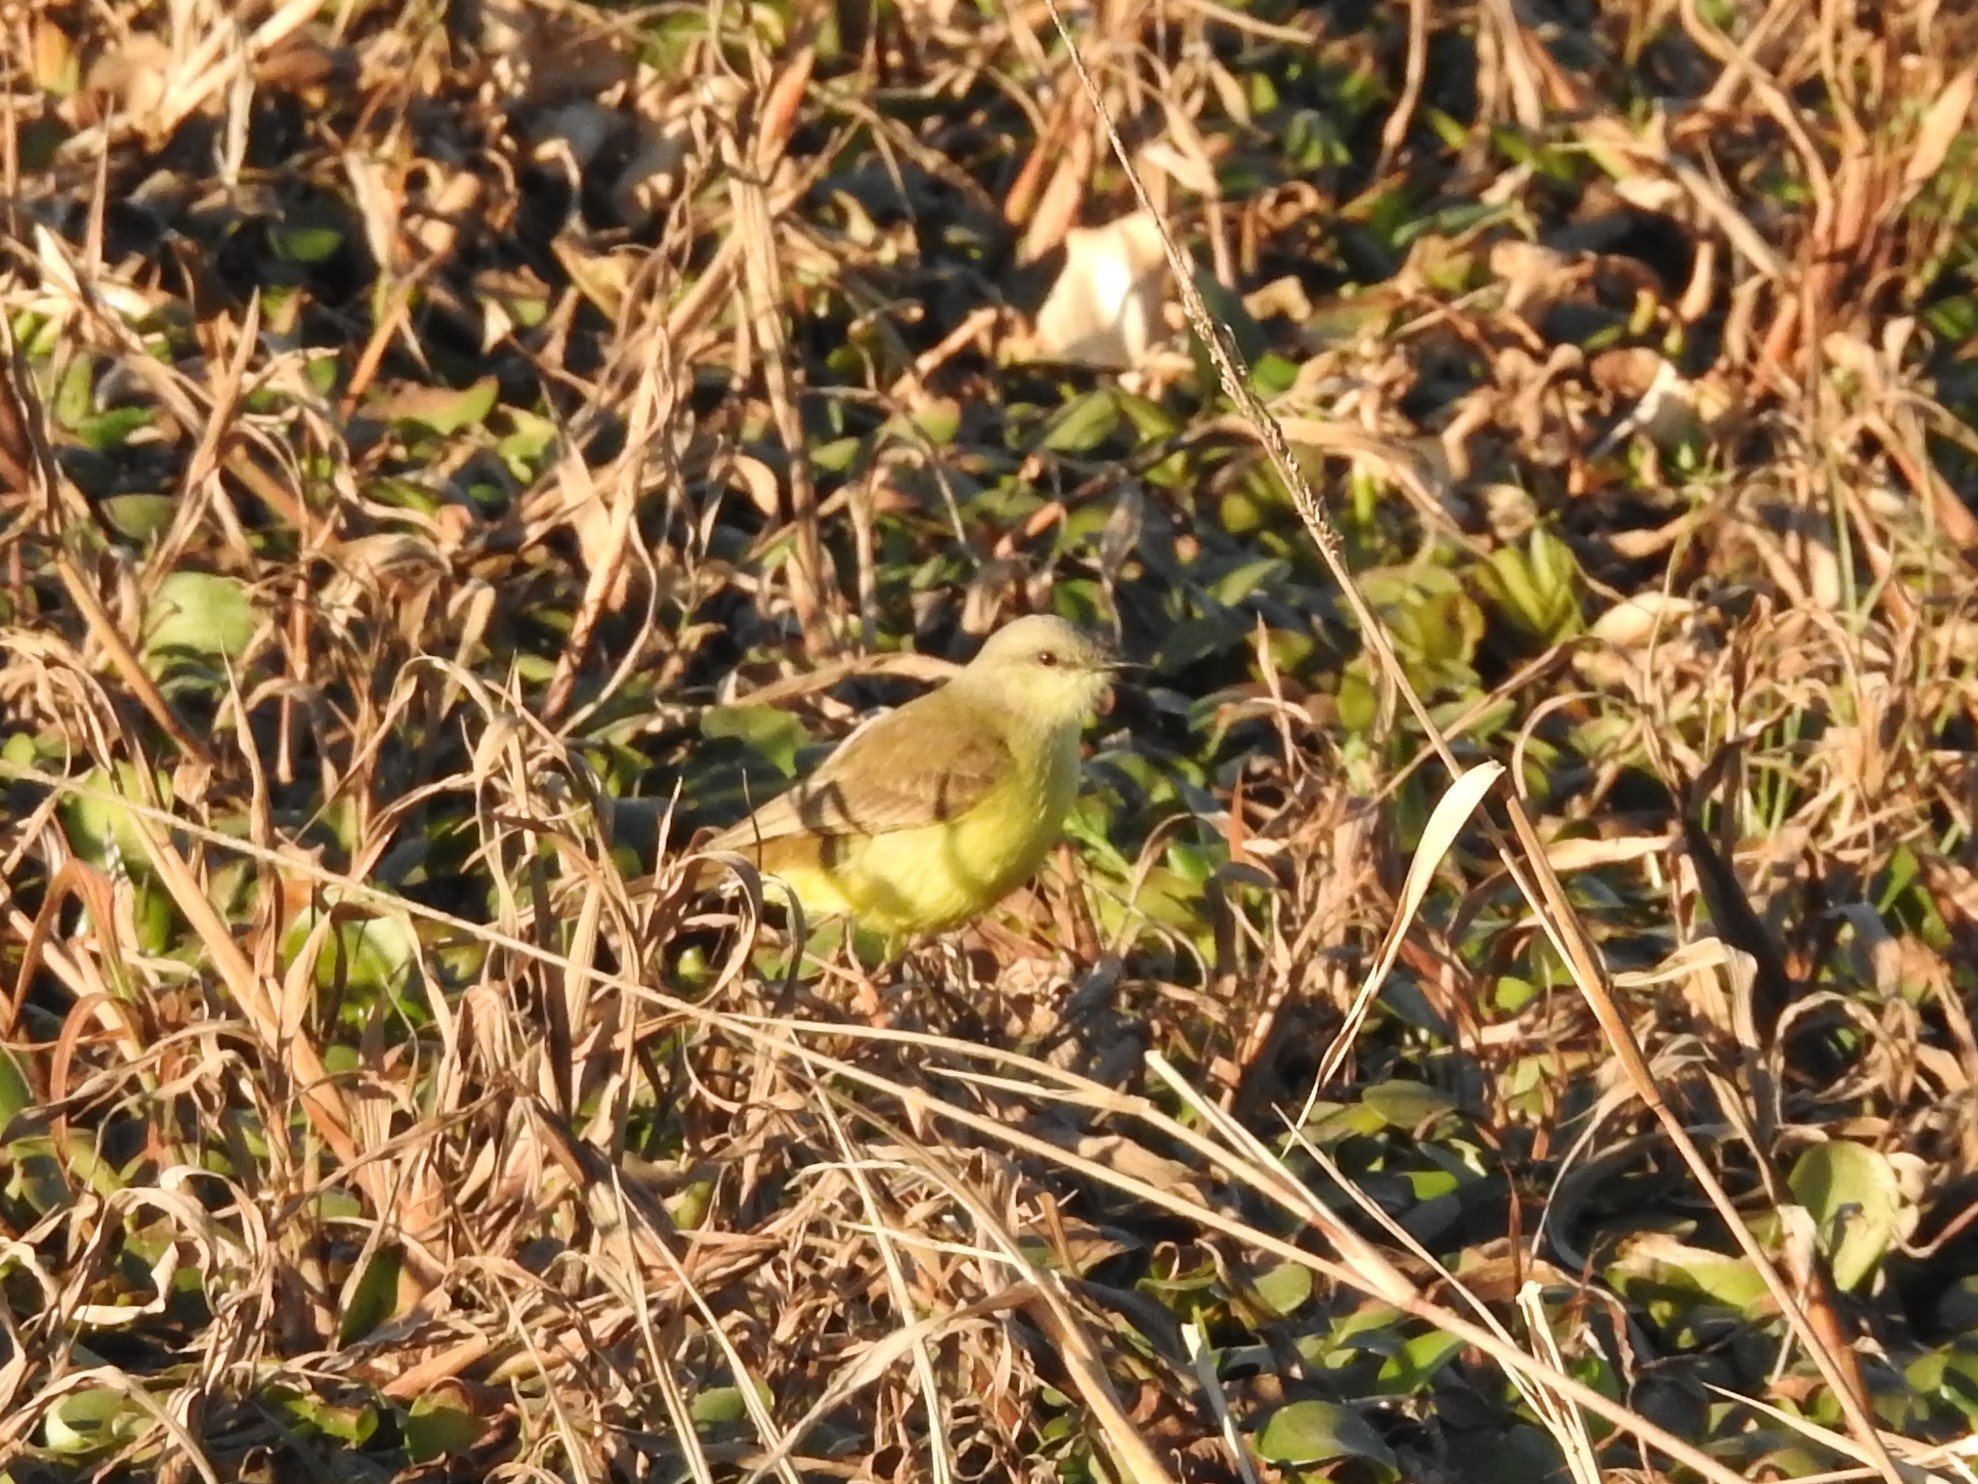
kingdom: Animalia
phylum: Chordata
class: Aves
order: Passeriformes
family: Tyrannidae
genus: Machetornis
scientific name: Machetornis rixosa
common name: Cattle tyrant
